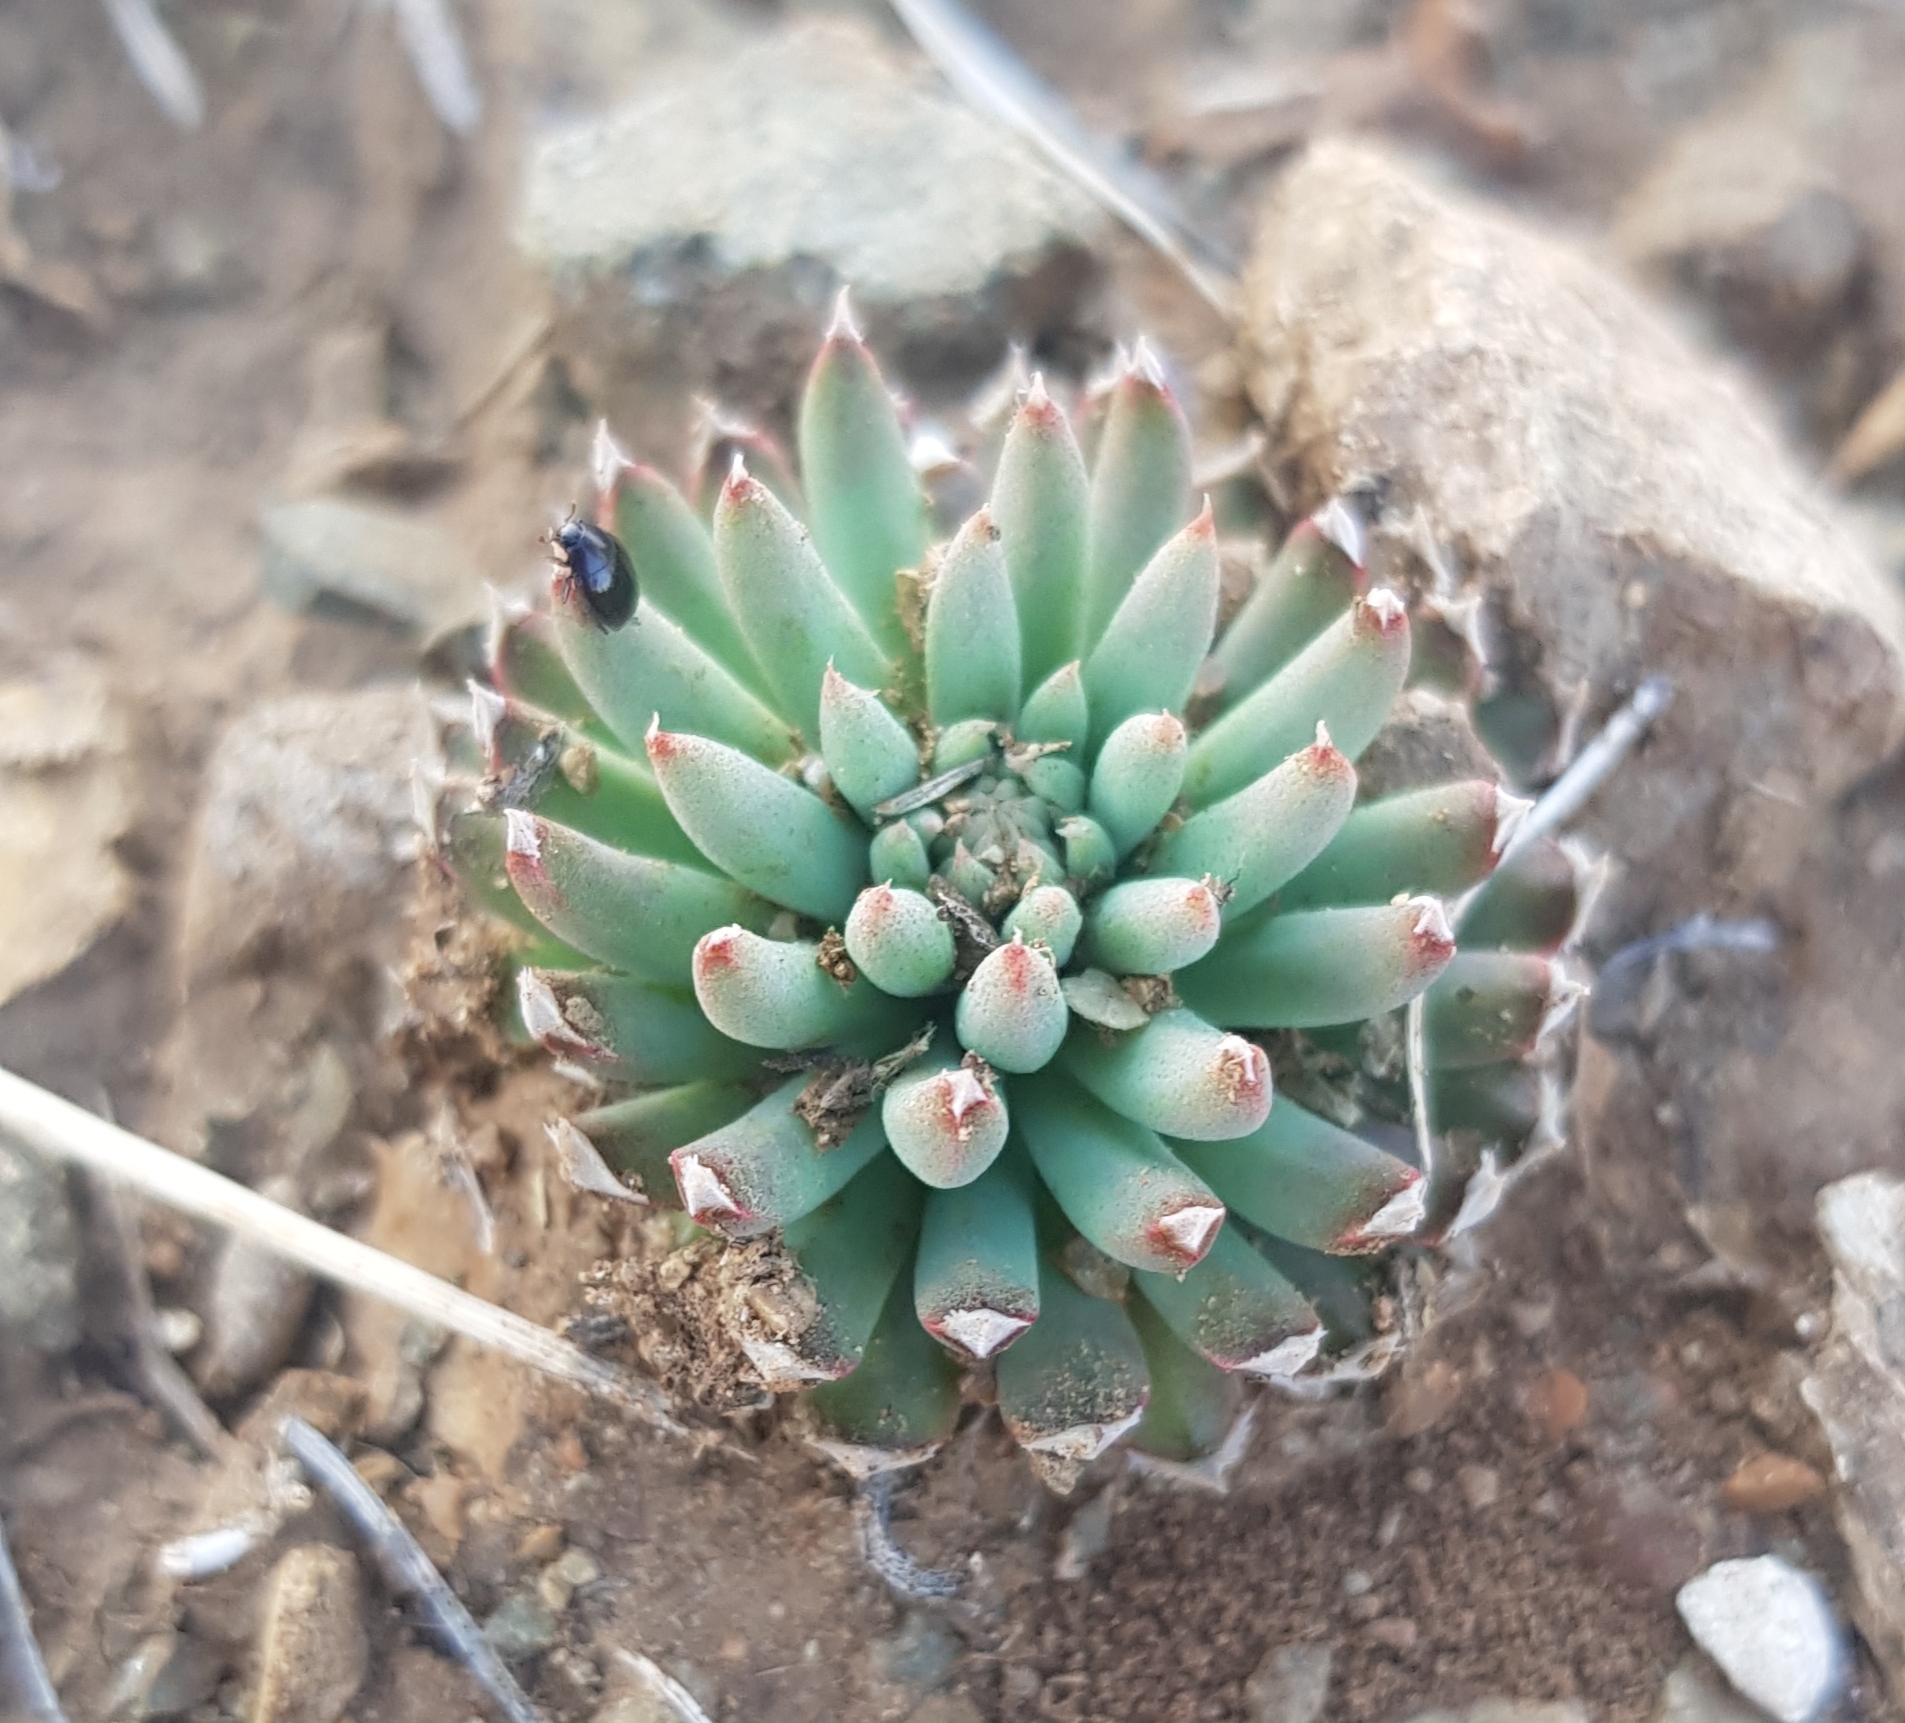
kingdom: Plantae
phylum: Tracheophyta
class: Magnoliopsida
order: Saxifragales
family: Crassulaceae
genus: Orostachys
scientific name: Orostachys spinosa
